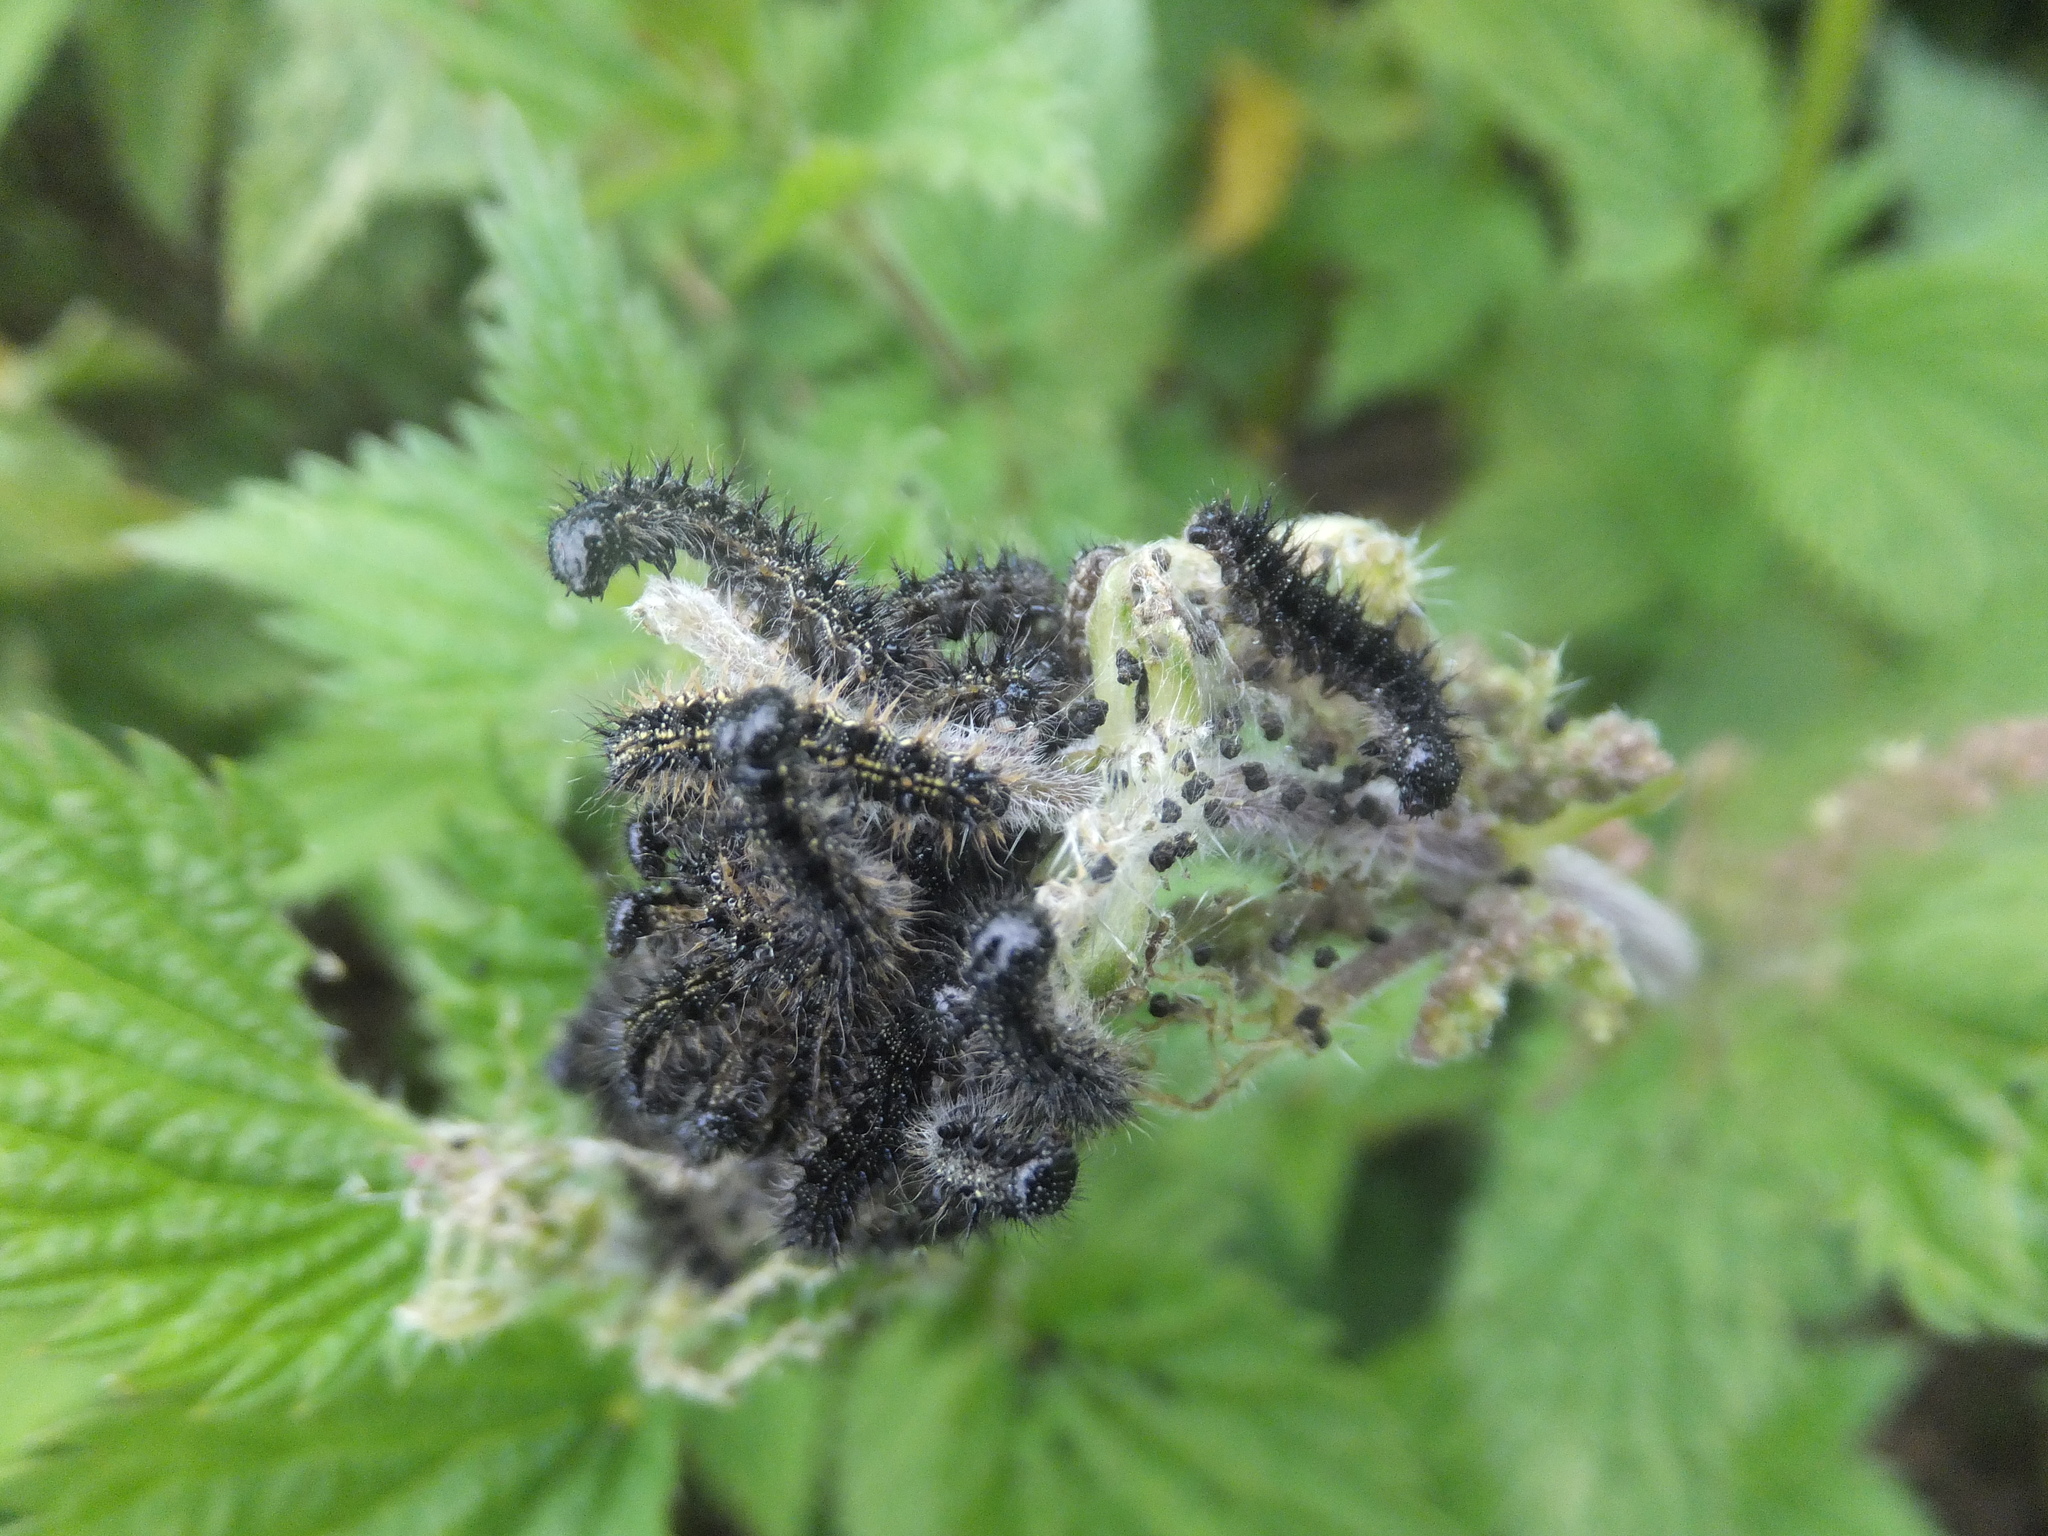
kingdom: Animalia
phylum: Arthropoda
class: Insecta
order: Lepidoptera
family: Nymphalidae
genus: Aglais
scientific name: Aglais urticae
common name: Small tortoiseshell
